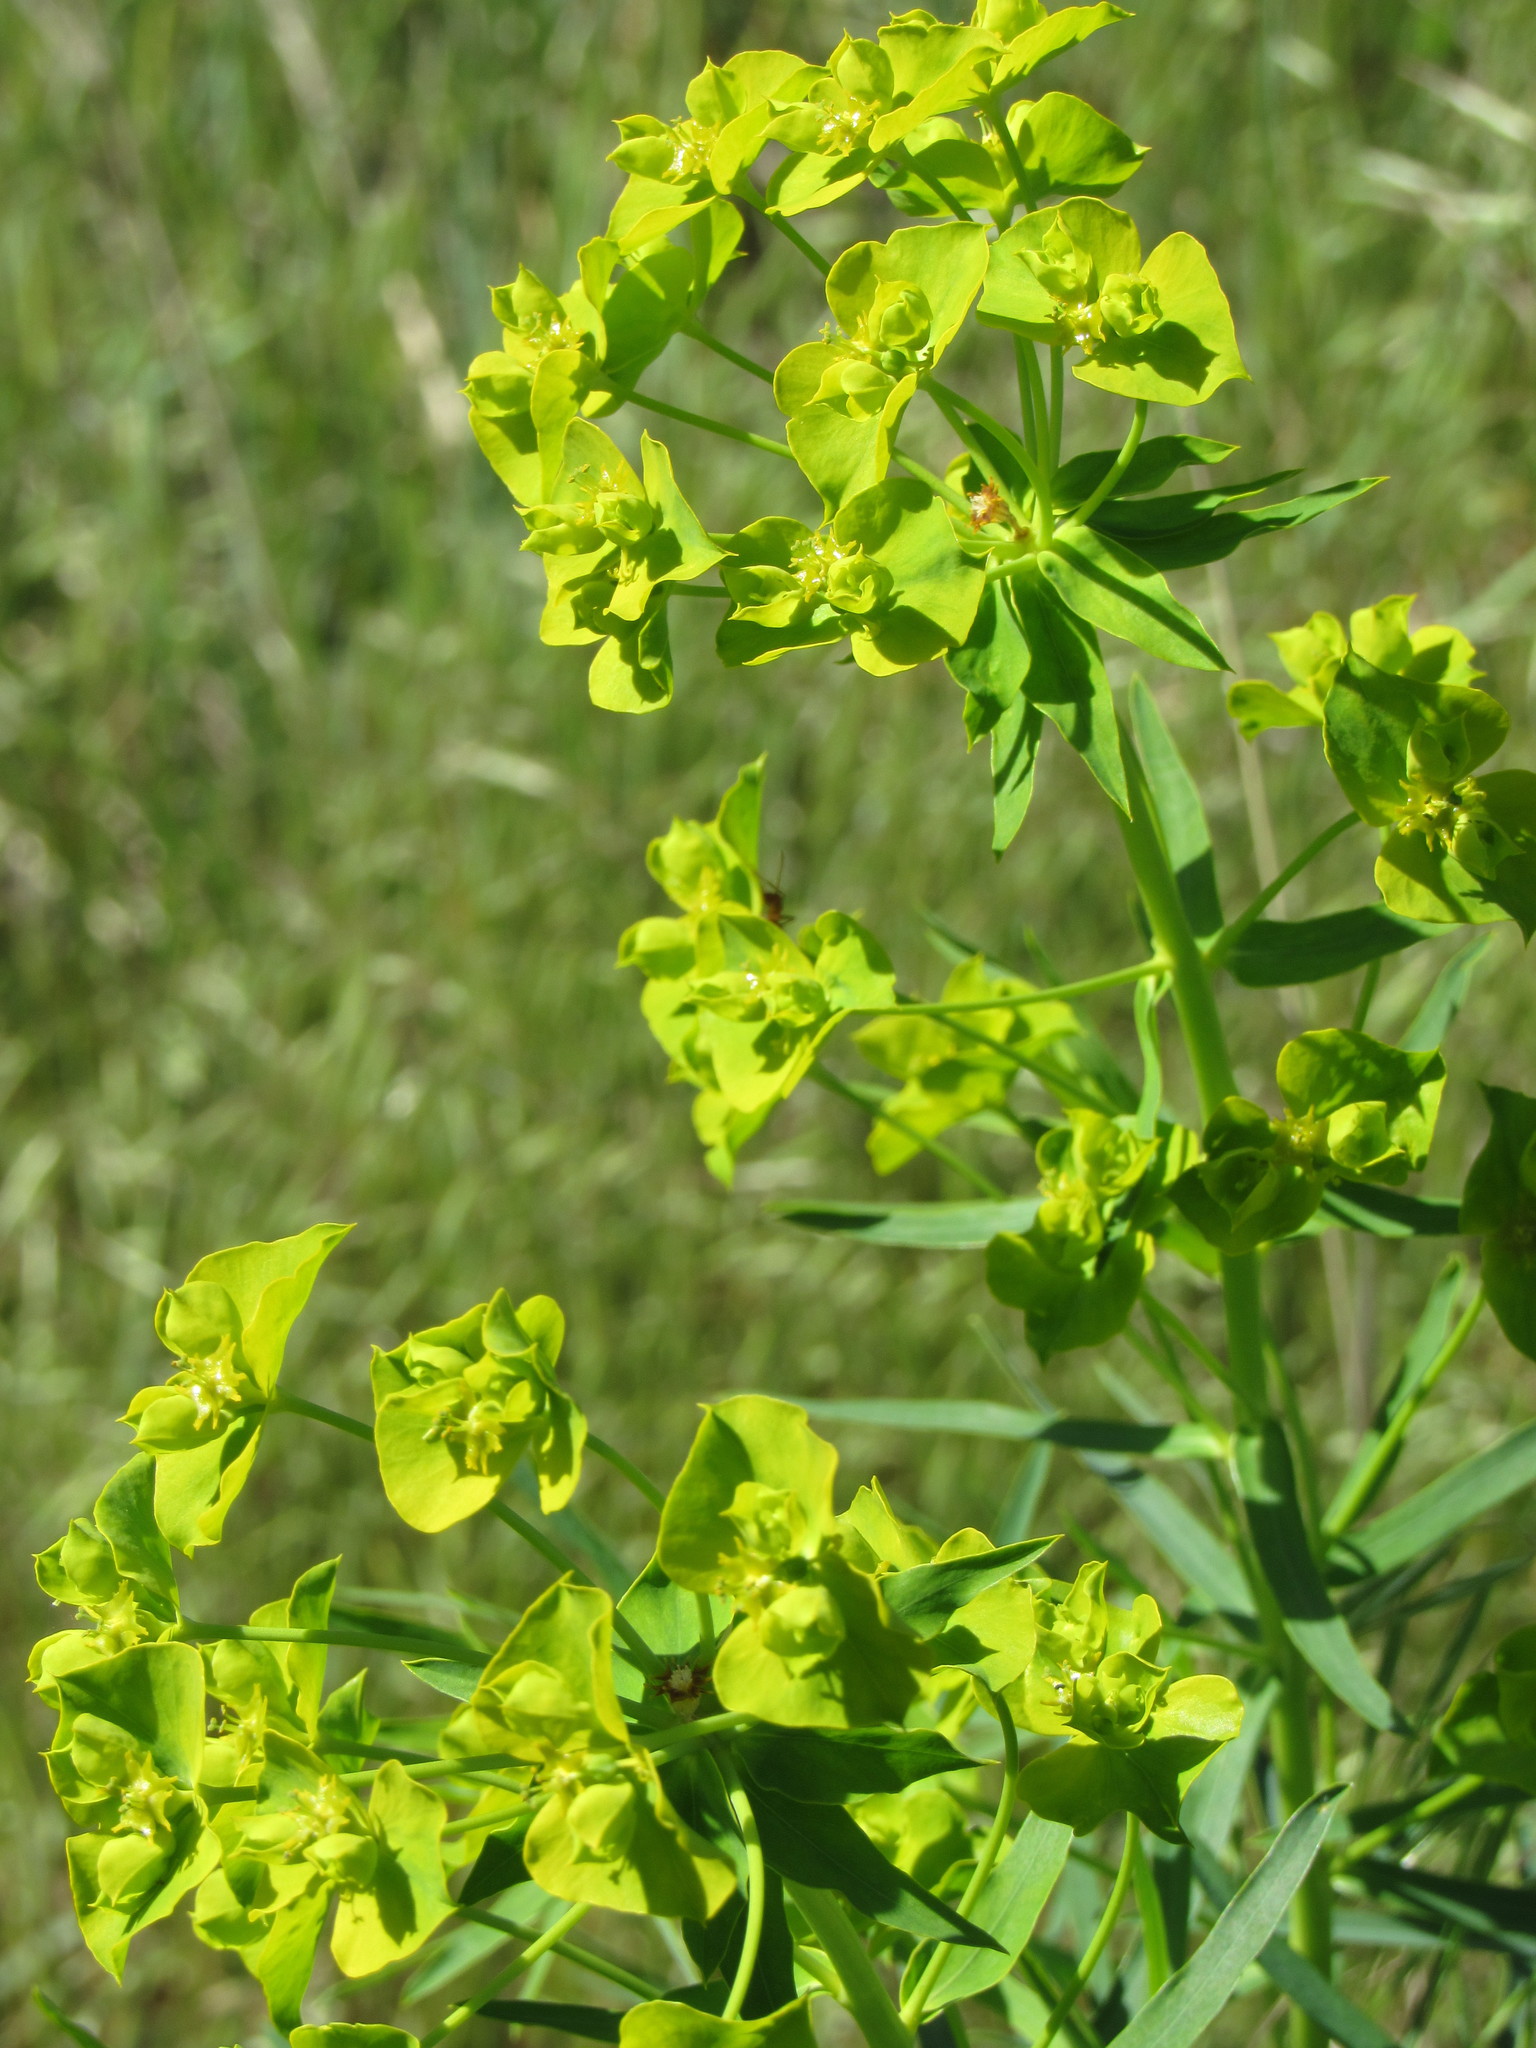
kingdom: Plantae
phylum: Tracheophyta
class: Magnoliopsida
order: Malpighiales
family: Euphorbiaceae
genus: Euphorbia
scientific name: Euphorbia virgata
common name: Leafy spurge
